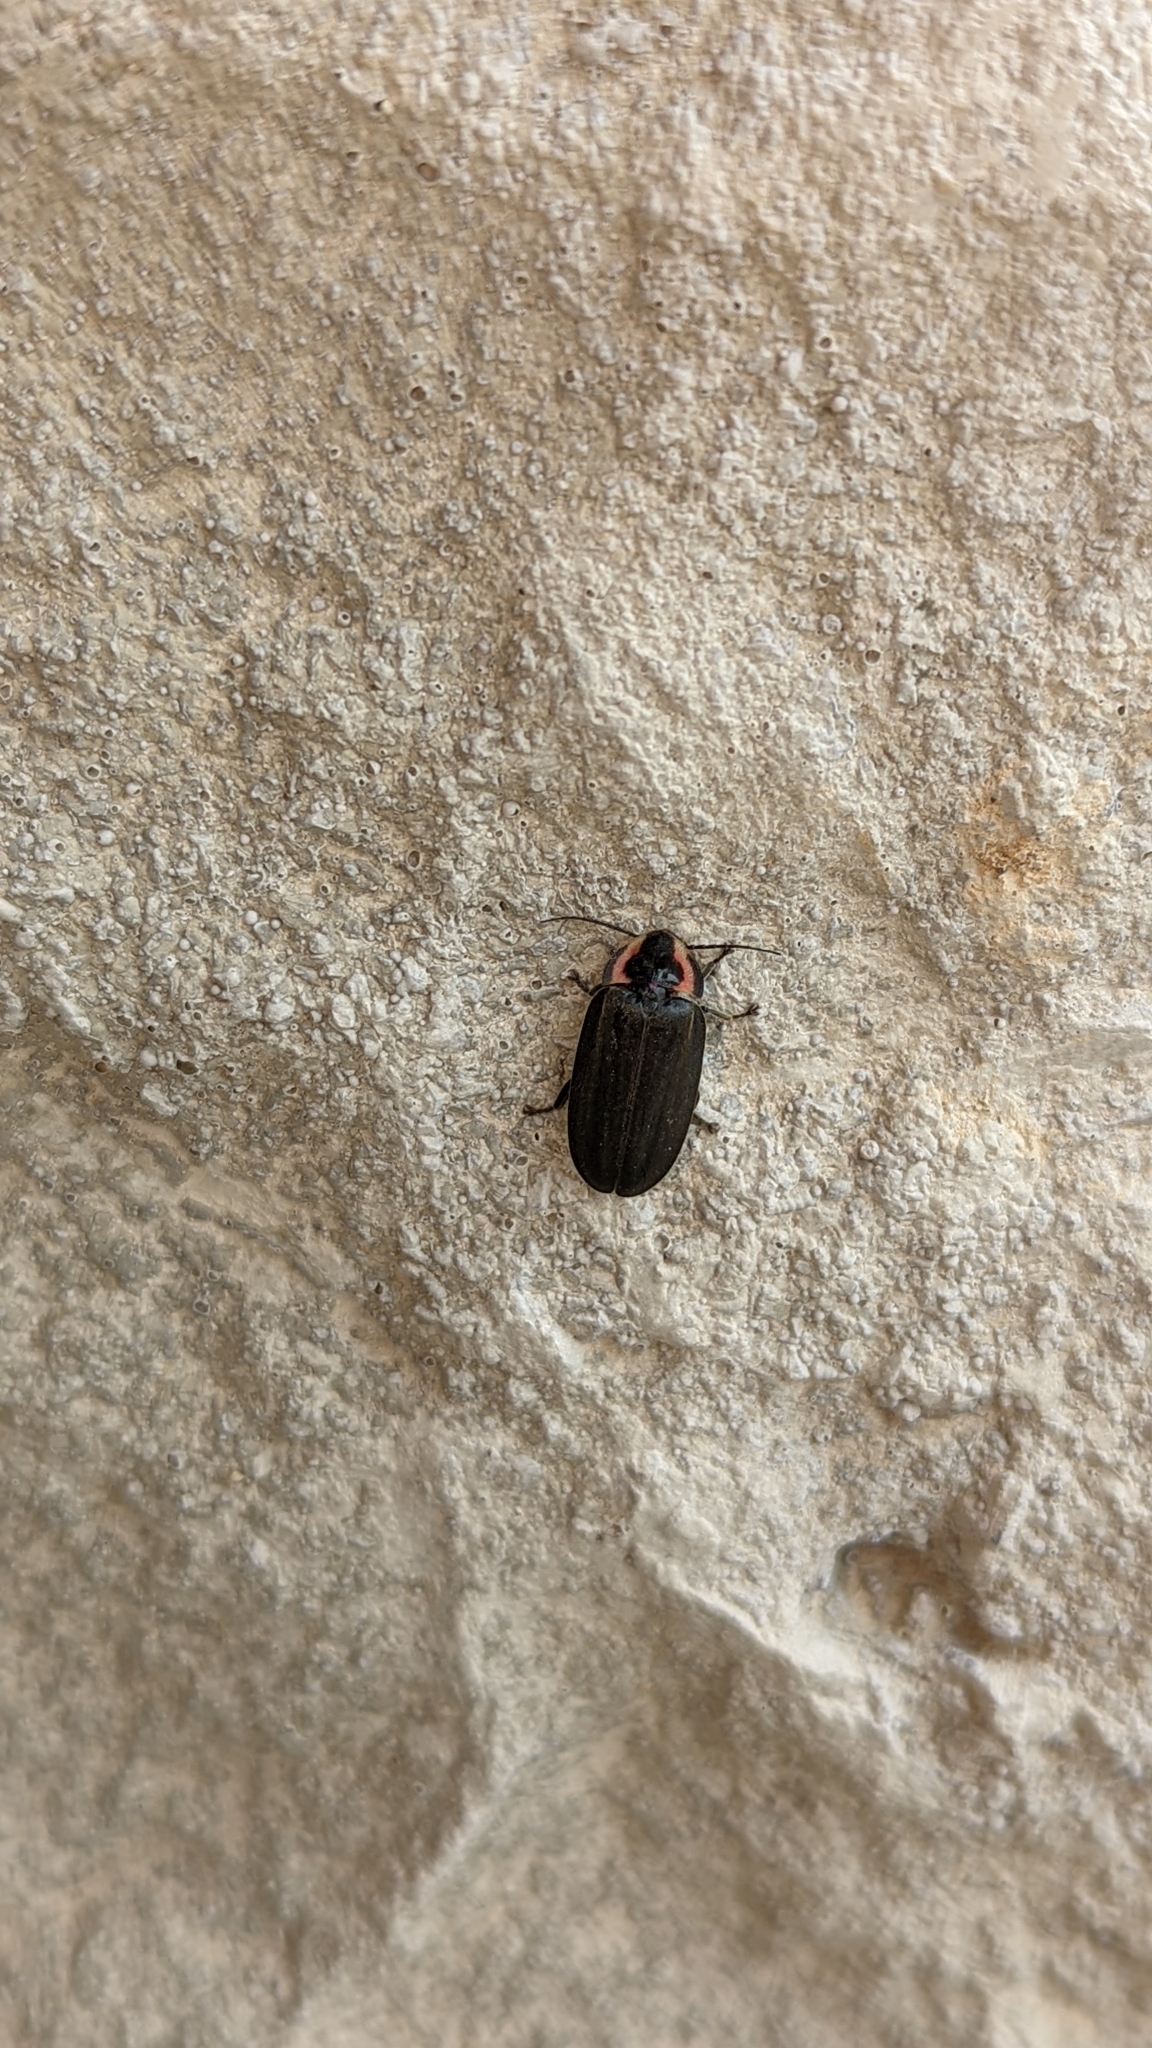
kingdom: Animalia
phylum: Arthropoda
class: Insecta
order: Coleoptera
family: Lampyridae
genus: Photinus
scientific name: Photinus corrusca
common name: Winter firefly
